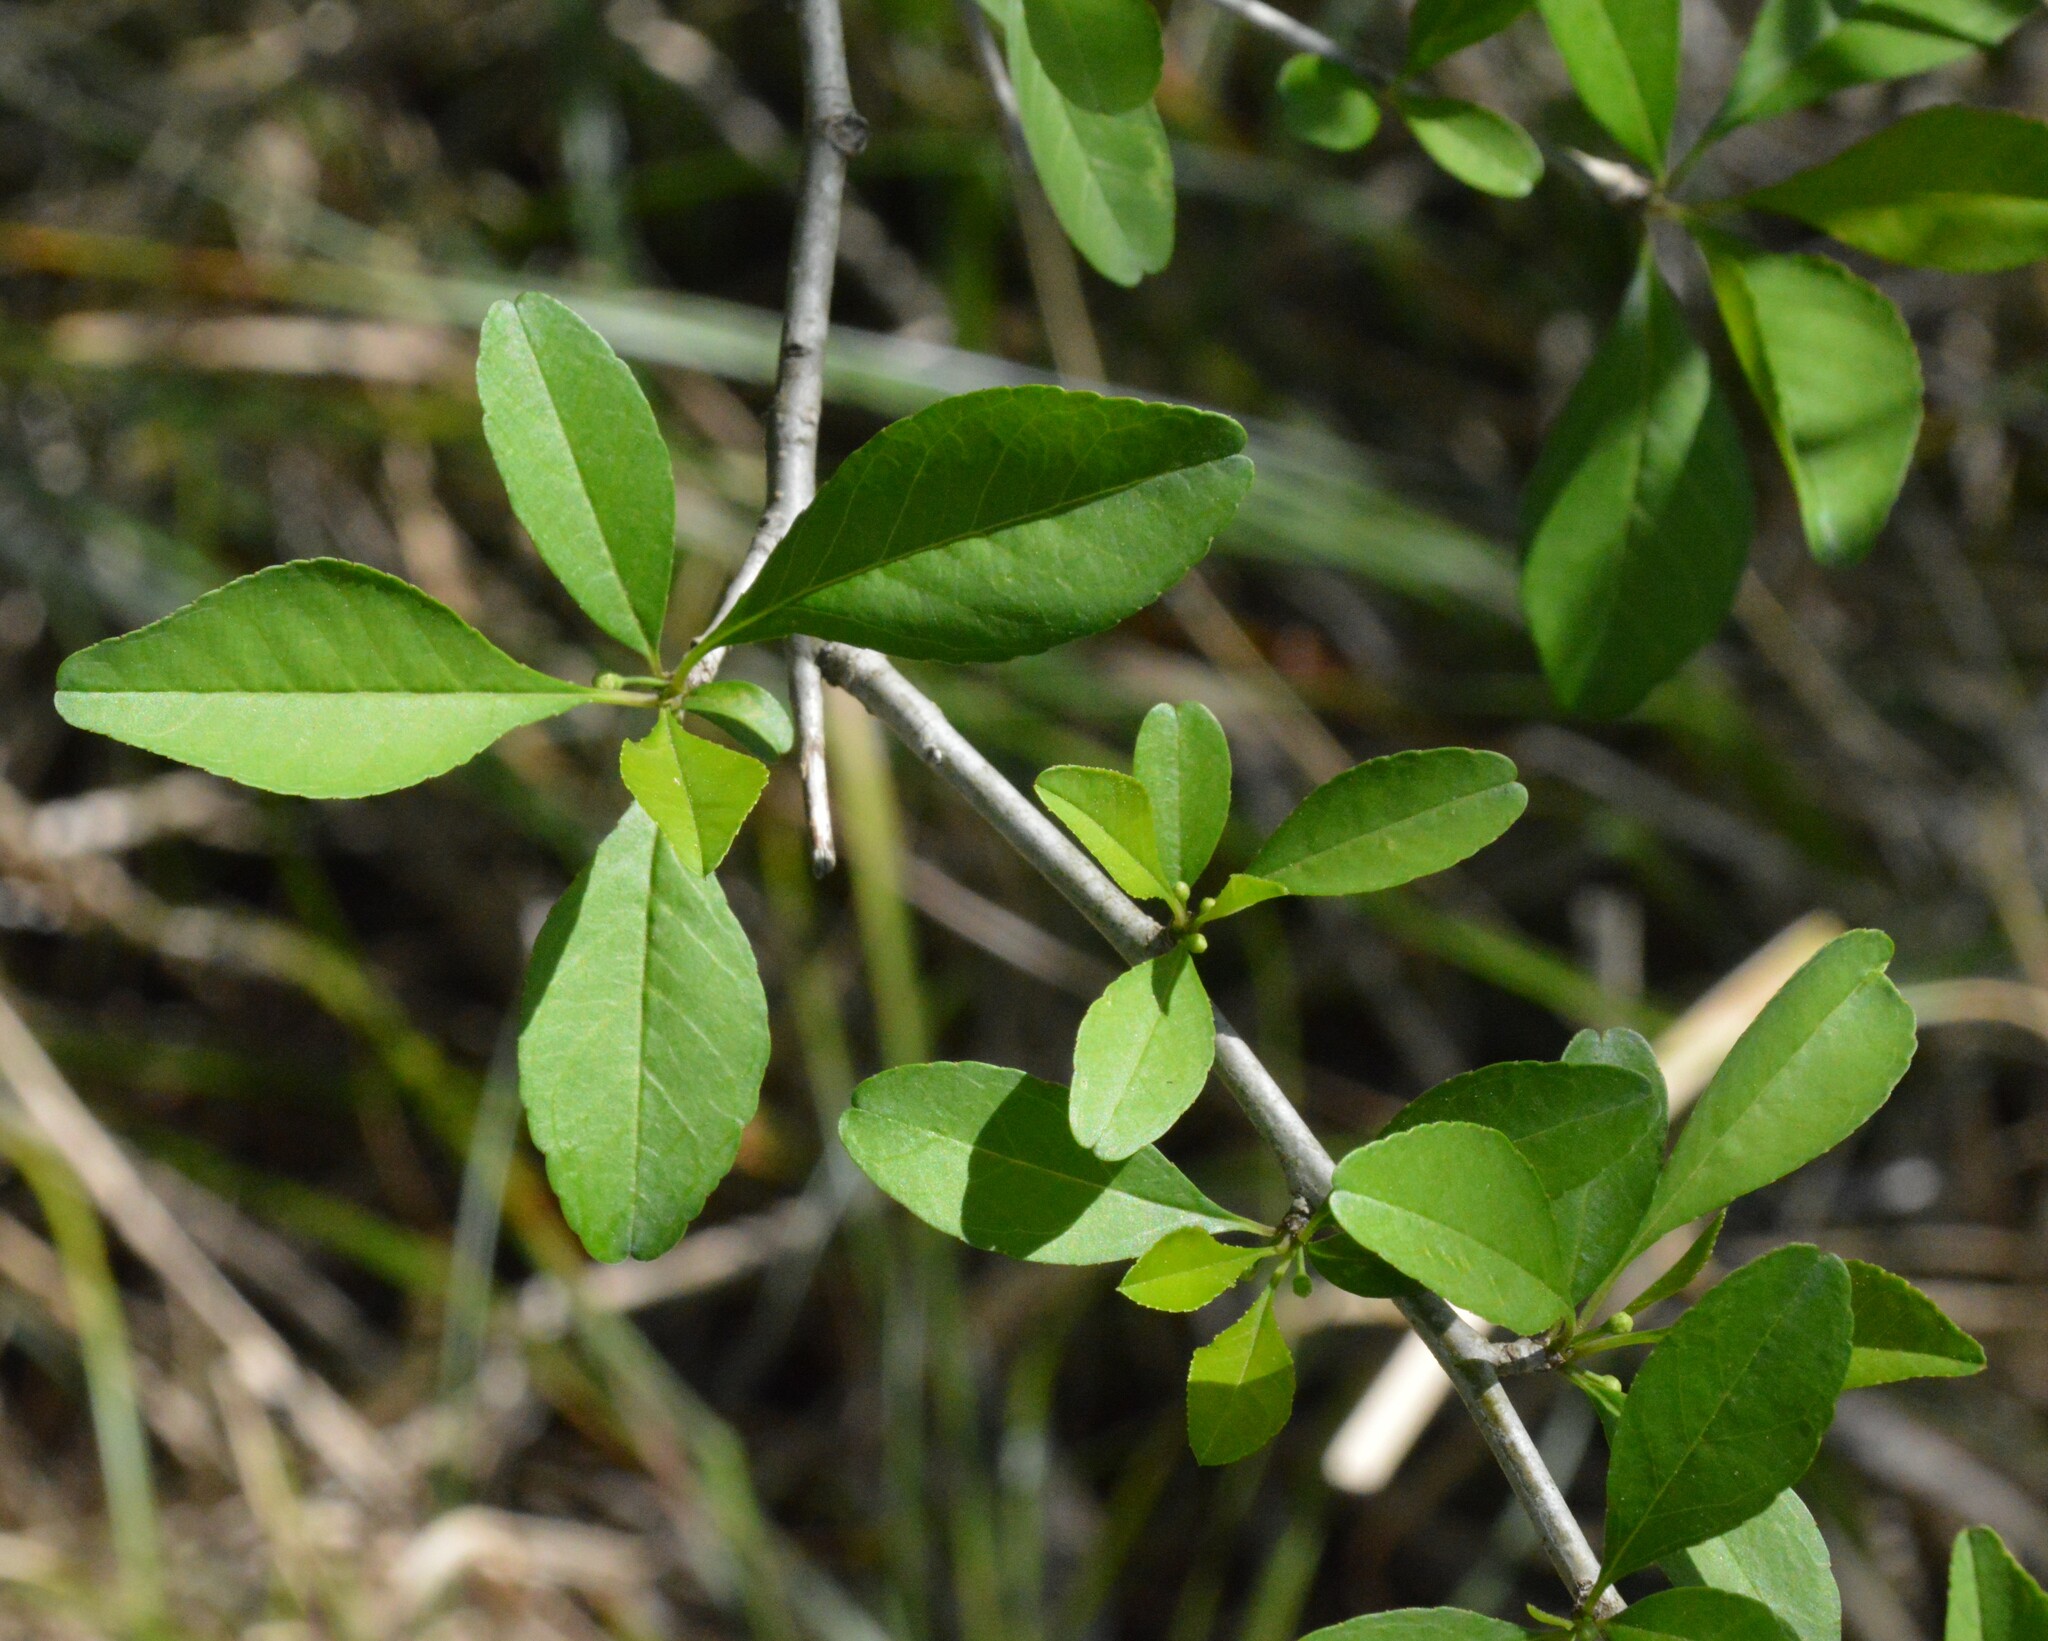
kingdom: Plantae
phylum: Tracheophyta
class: Magnoliopsida
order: Aquifoliales
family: Aquifoliaceae
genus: Ilex
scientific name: Ilex decidua
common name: Possum-haw
